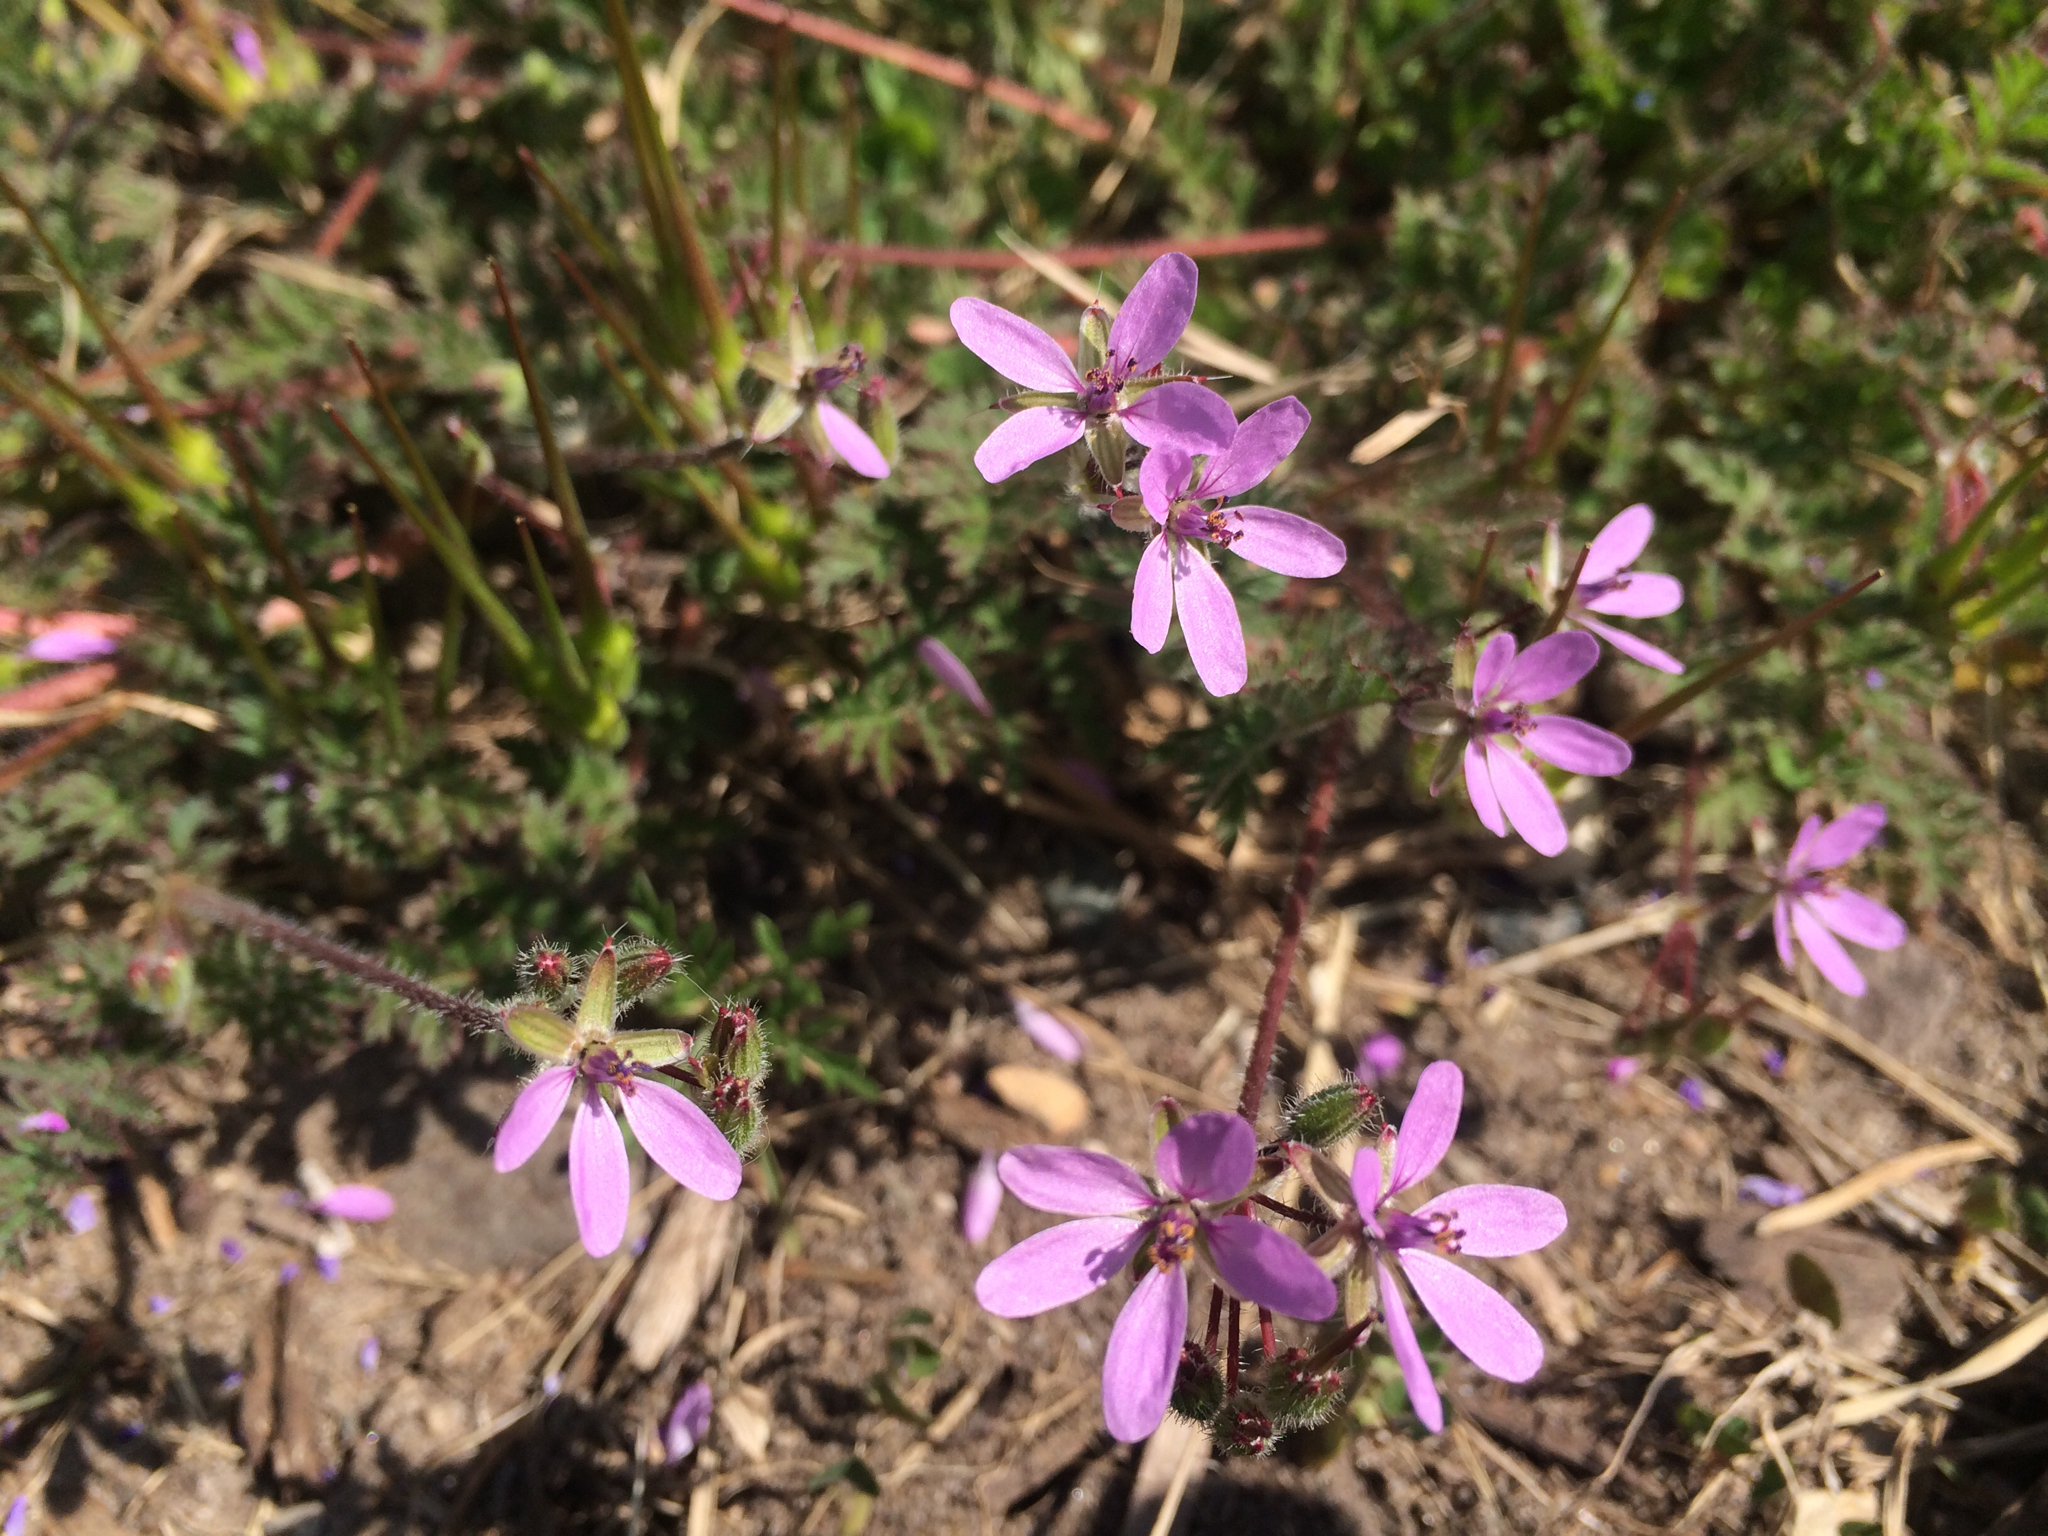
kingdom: Plantae
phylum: Tracheophyta
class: Magnoliopsida
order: Geraniales
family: Geraniaceae
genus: Erodium
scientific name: Erodium cicutarium
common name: Common stork's-bill
